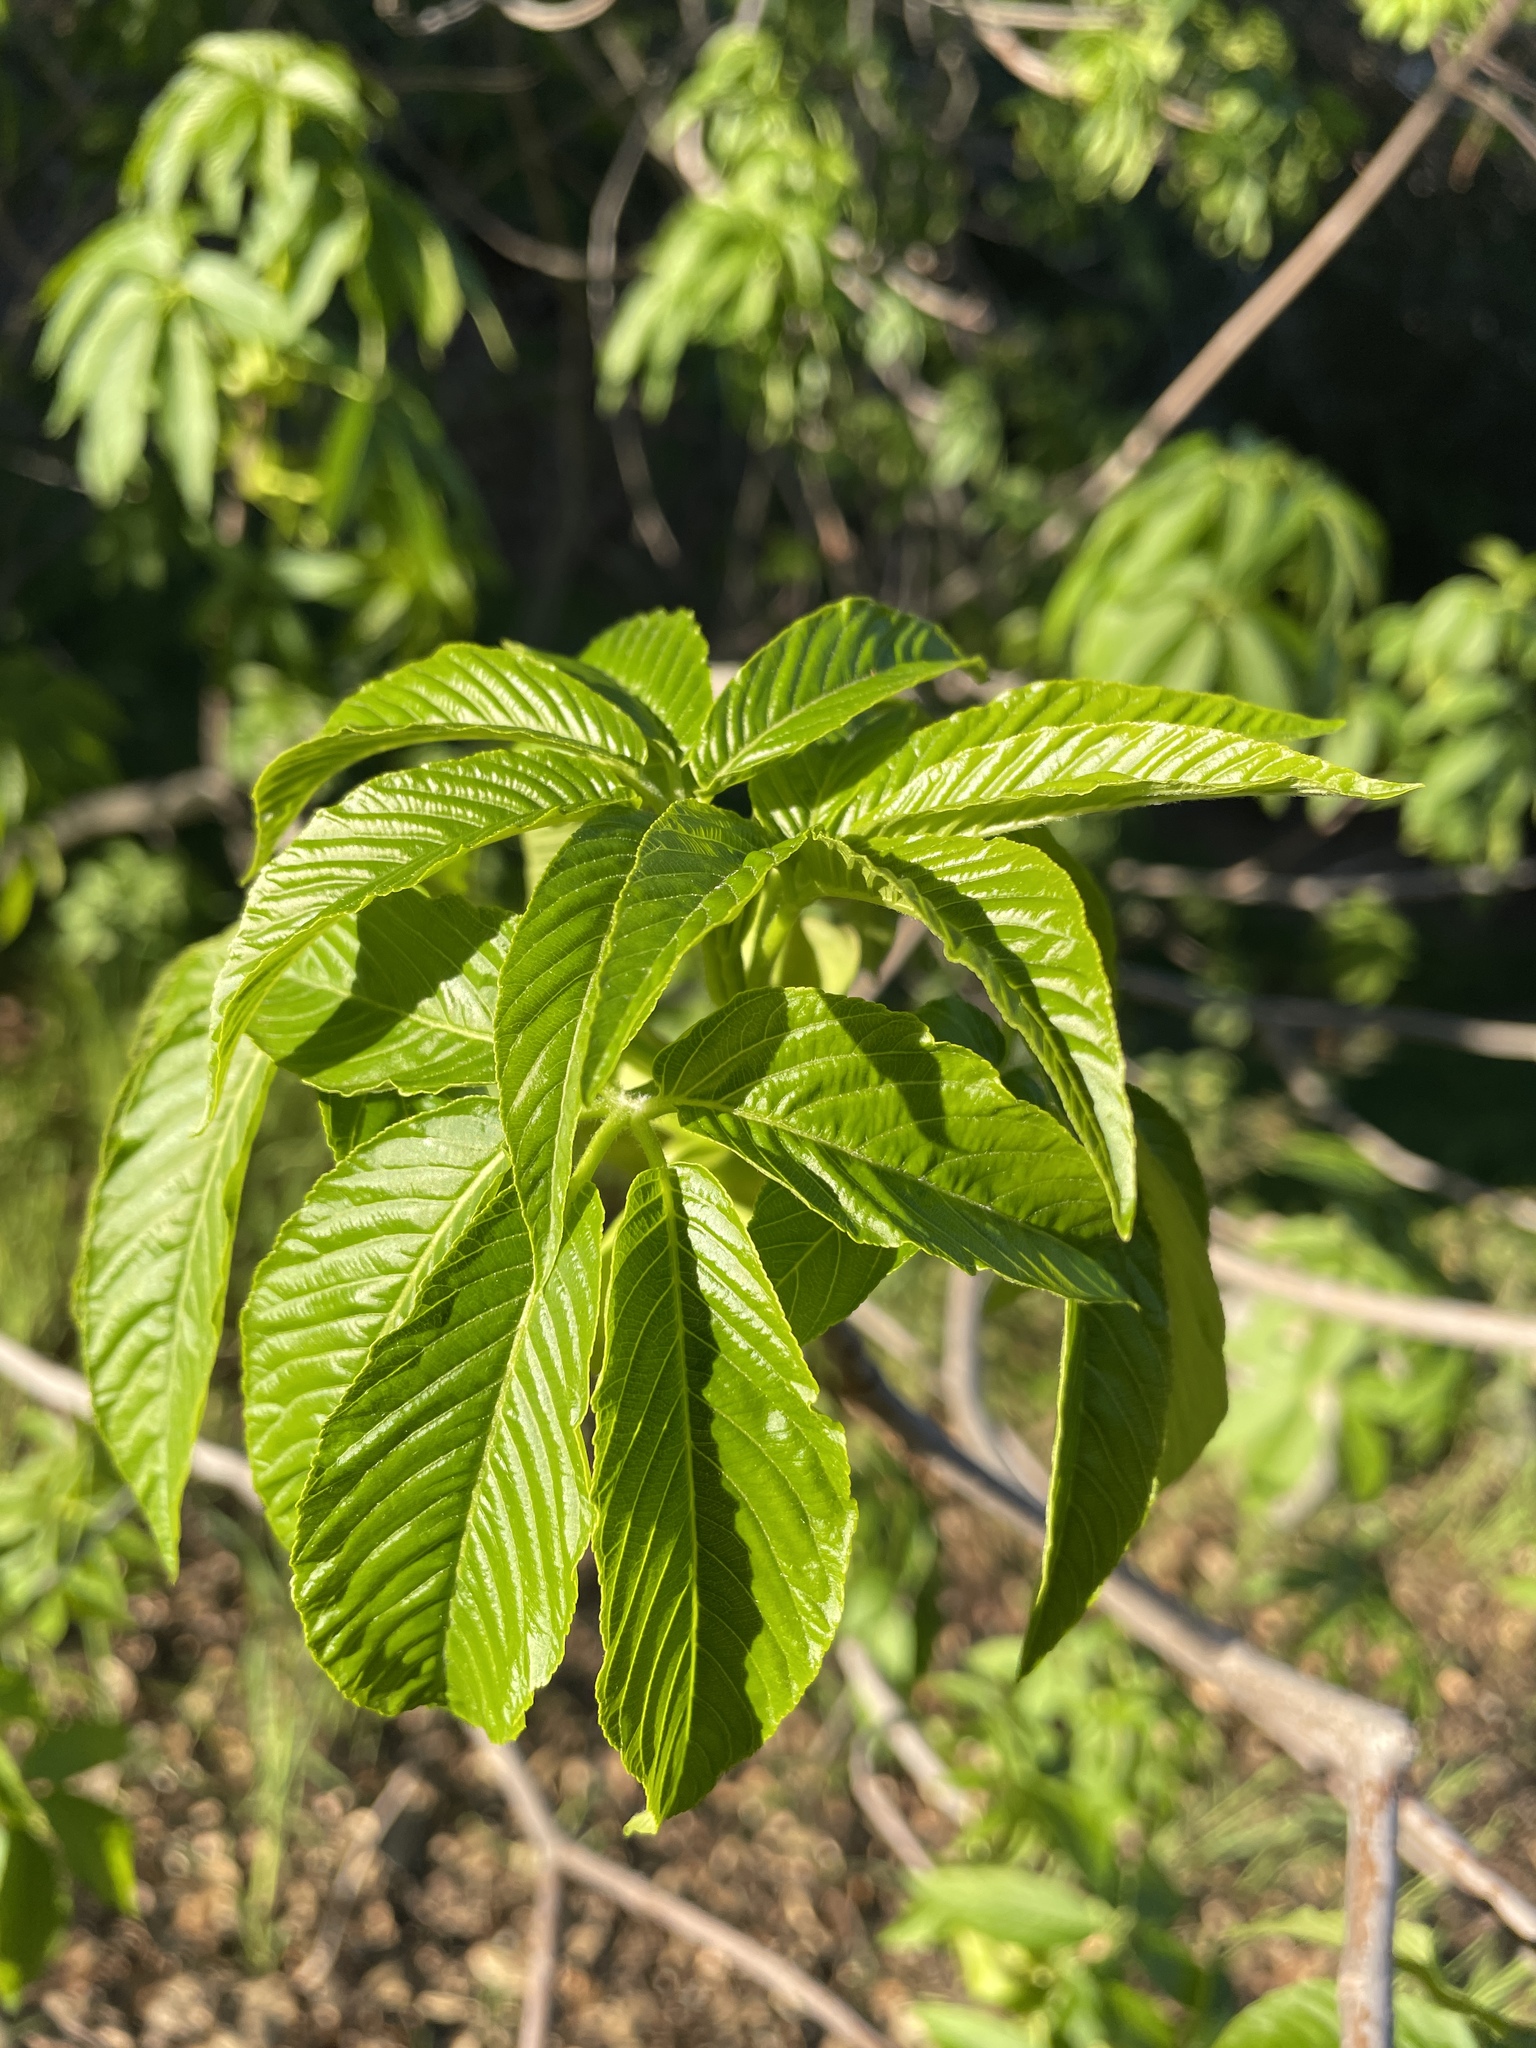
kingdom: Plantae
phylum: Tracheophyta
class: Magnoliopsida
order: Sapindales
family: Sapindaceae
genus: Aesculus
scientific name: Aesculus californica
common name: California buckeye
